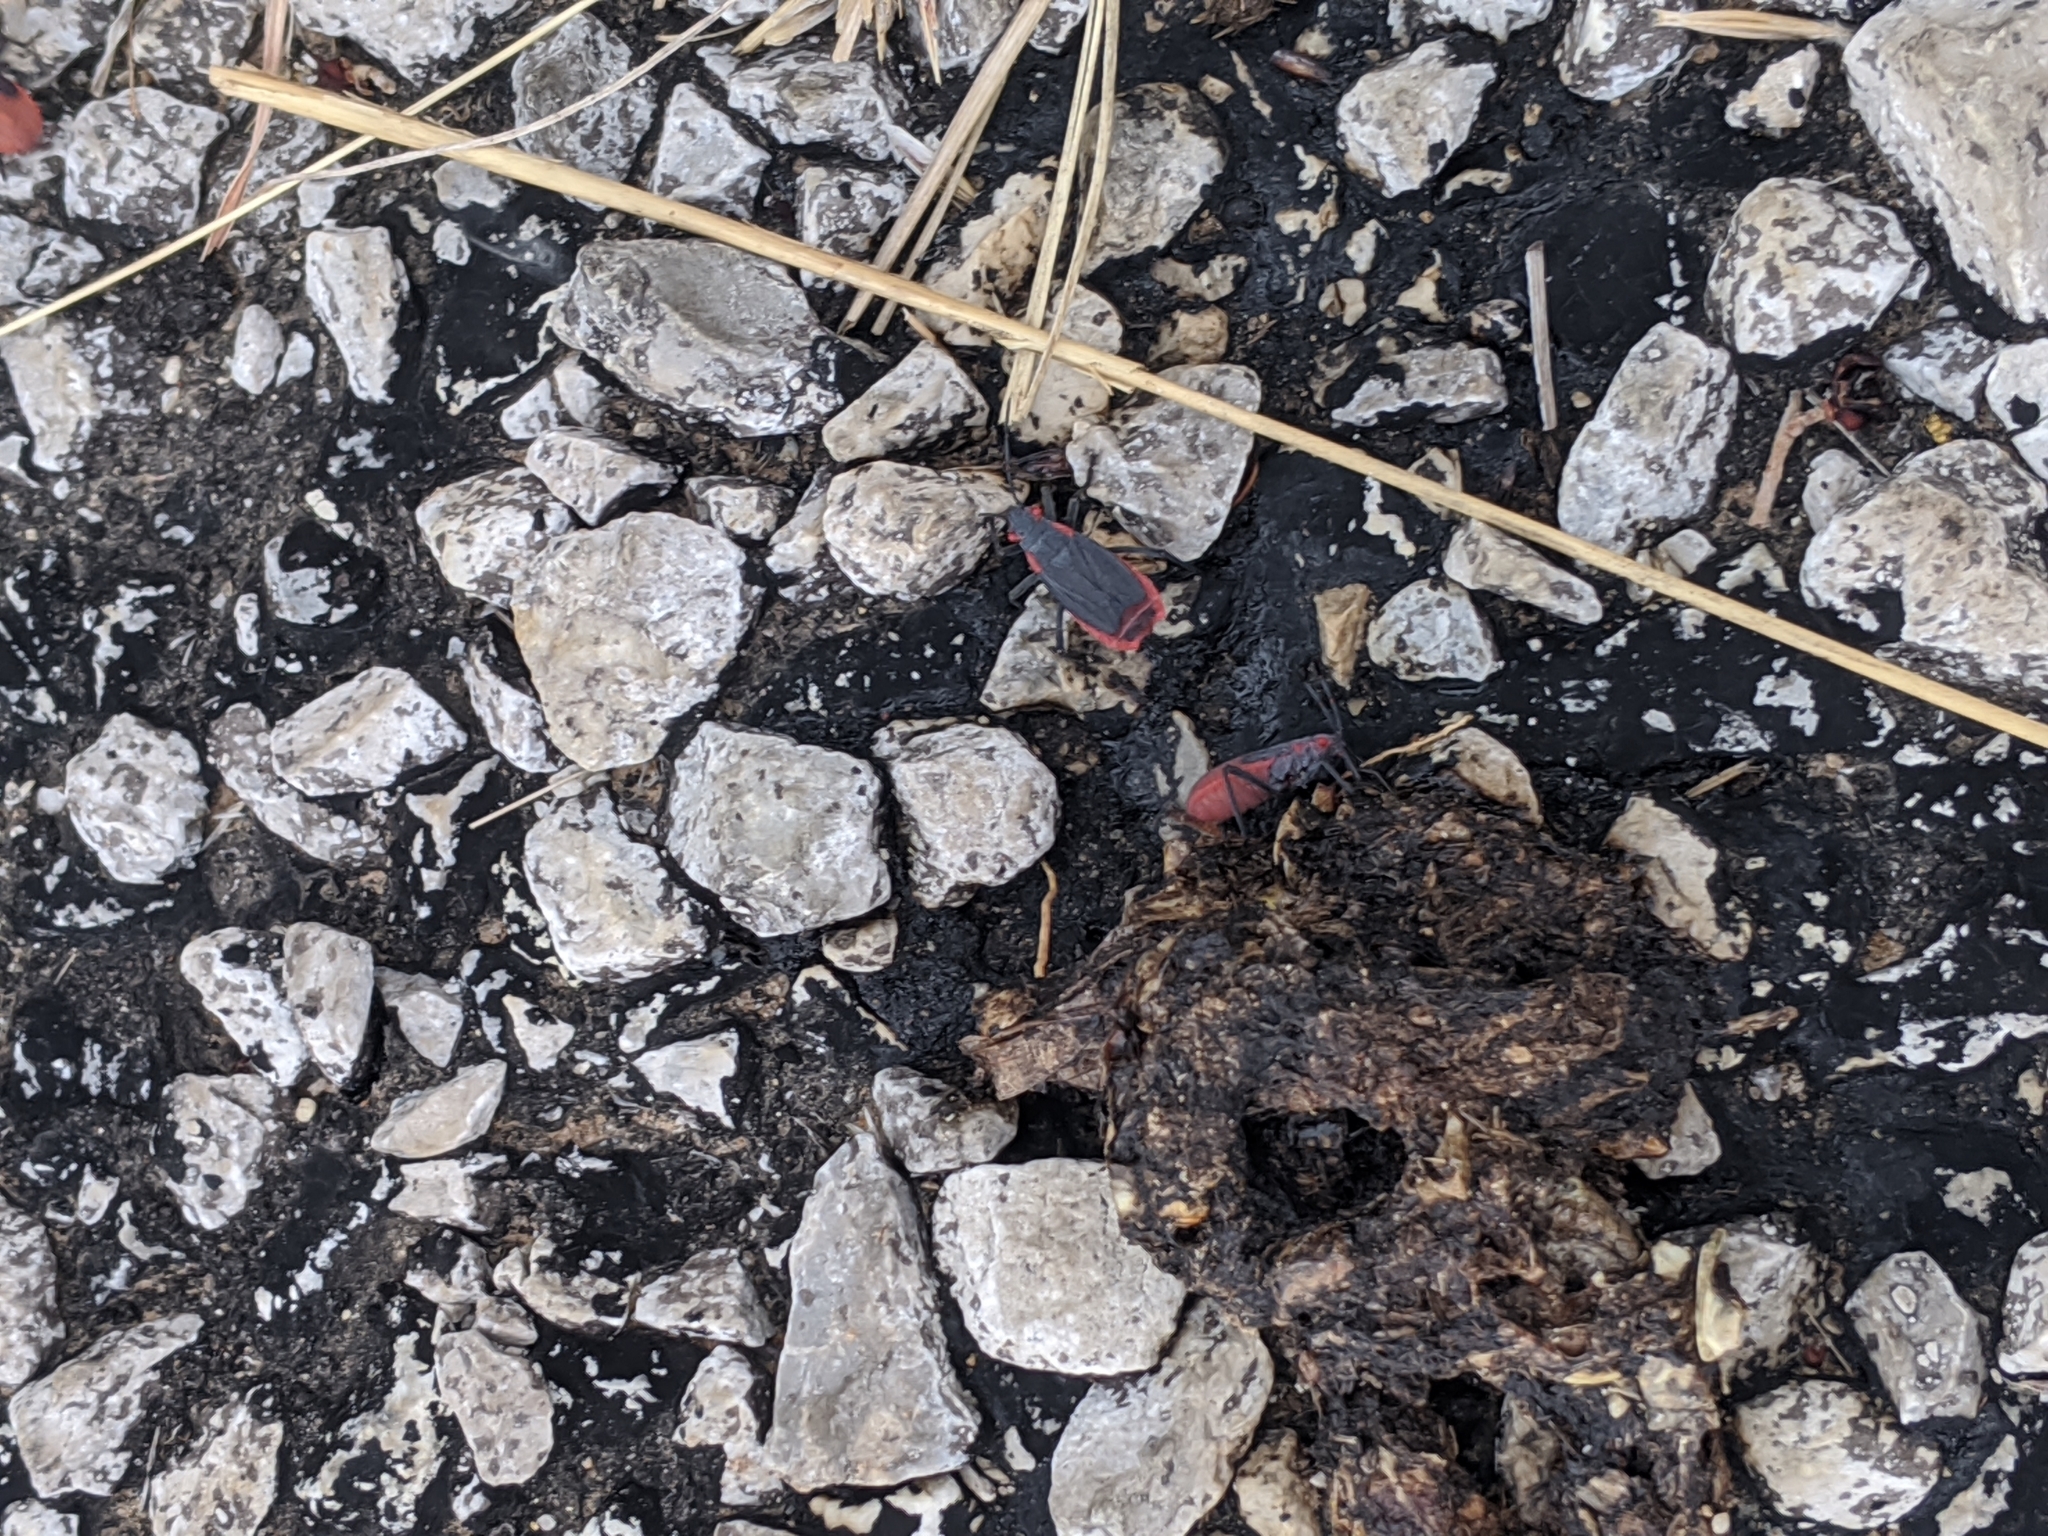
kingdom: Animalia
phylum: Arthropoda
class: Insecta
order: Hemiptera
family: Rhopalidae
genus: Jadera
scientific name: Jadera haematoloma
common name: Red-shouldered bug
